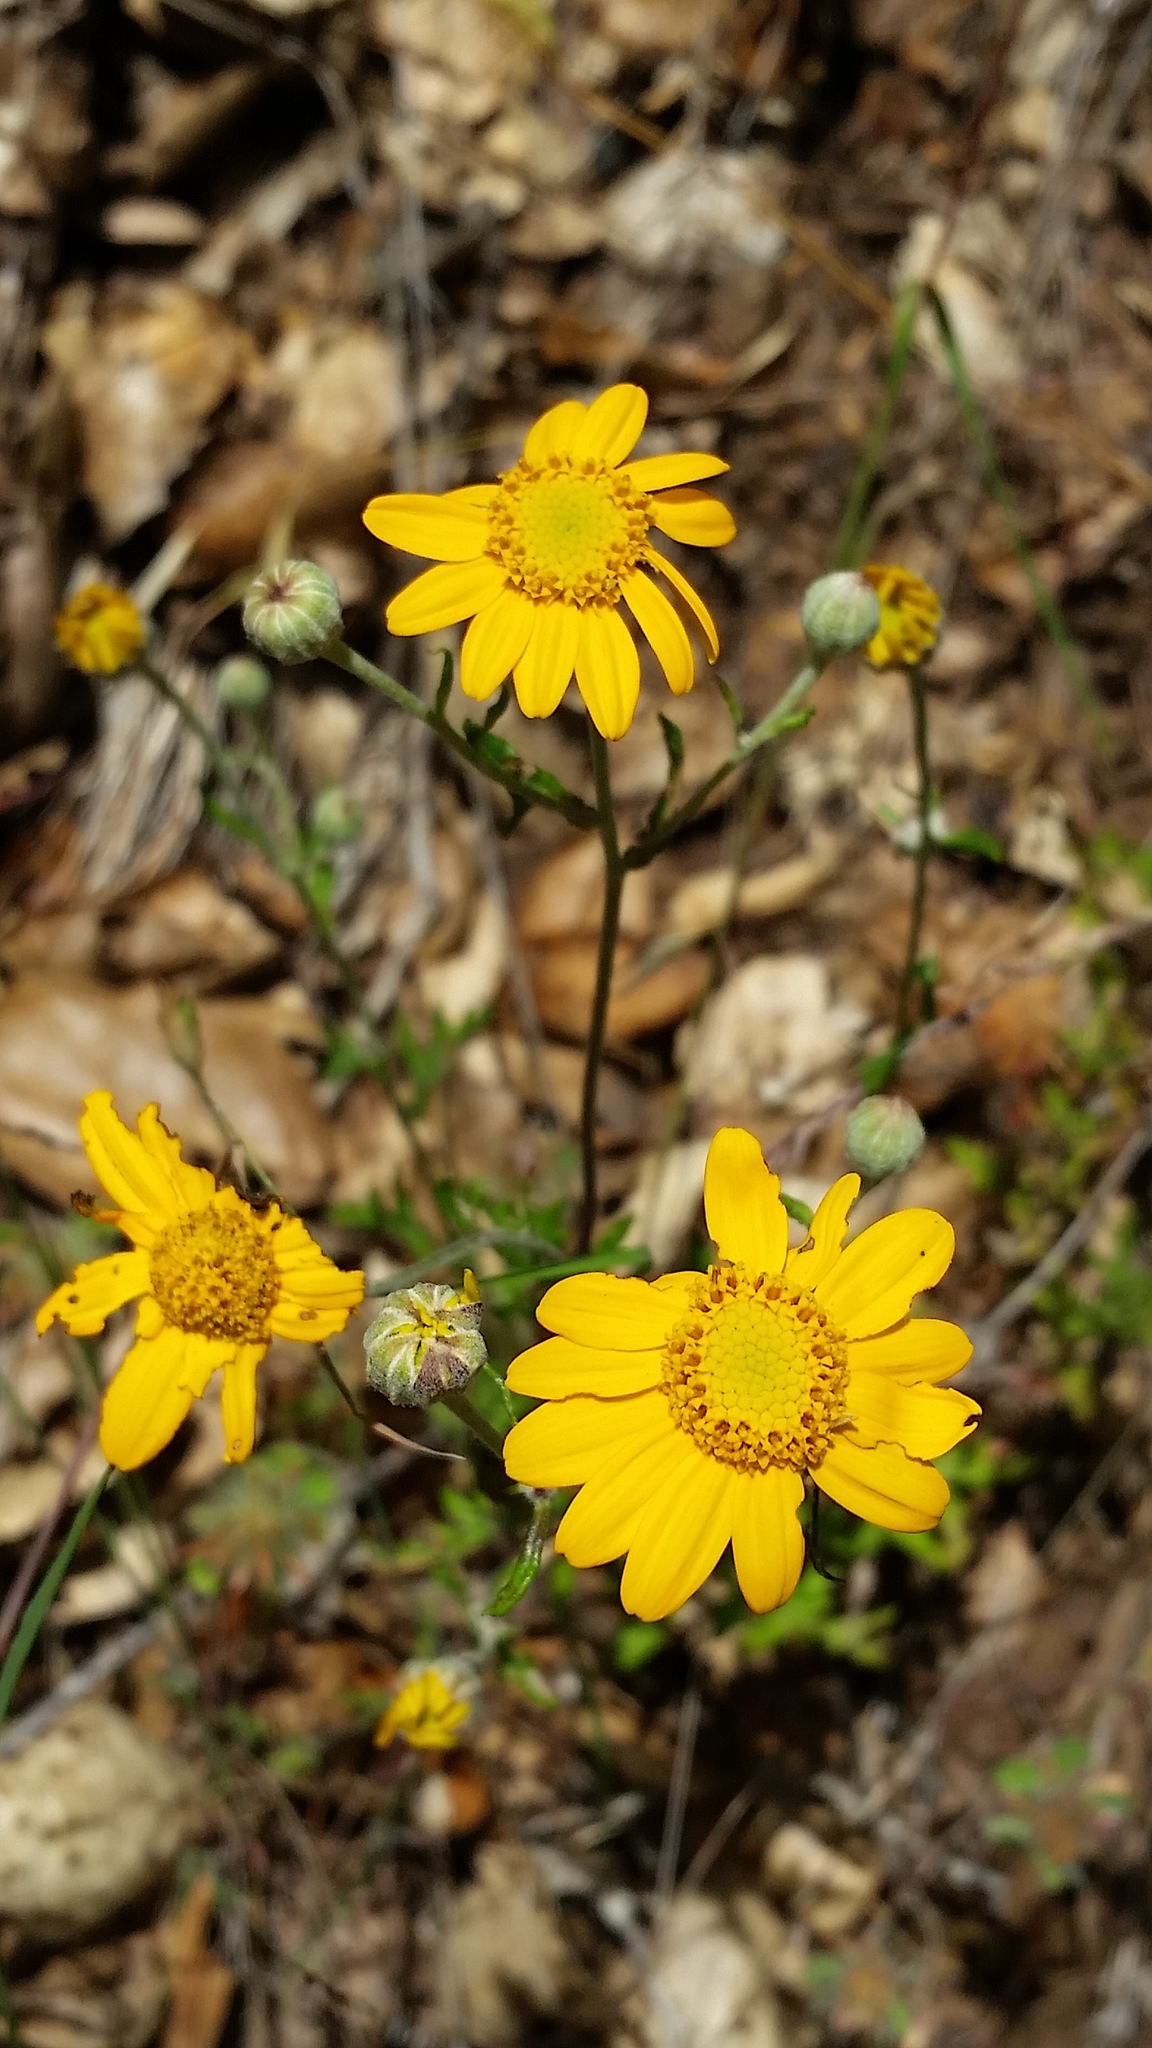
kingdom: Plantae
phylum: Tracheophyta
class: Magnoliopsida
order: Asterales
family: Asteraceae
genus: Eriophyllum
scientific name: Eriophyllum lanatum
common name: Common woolly-sunflower
